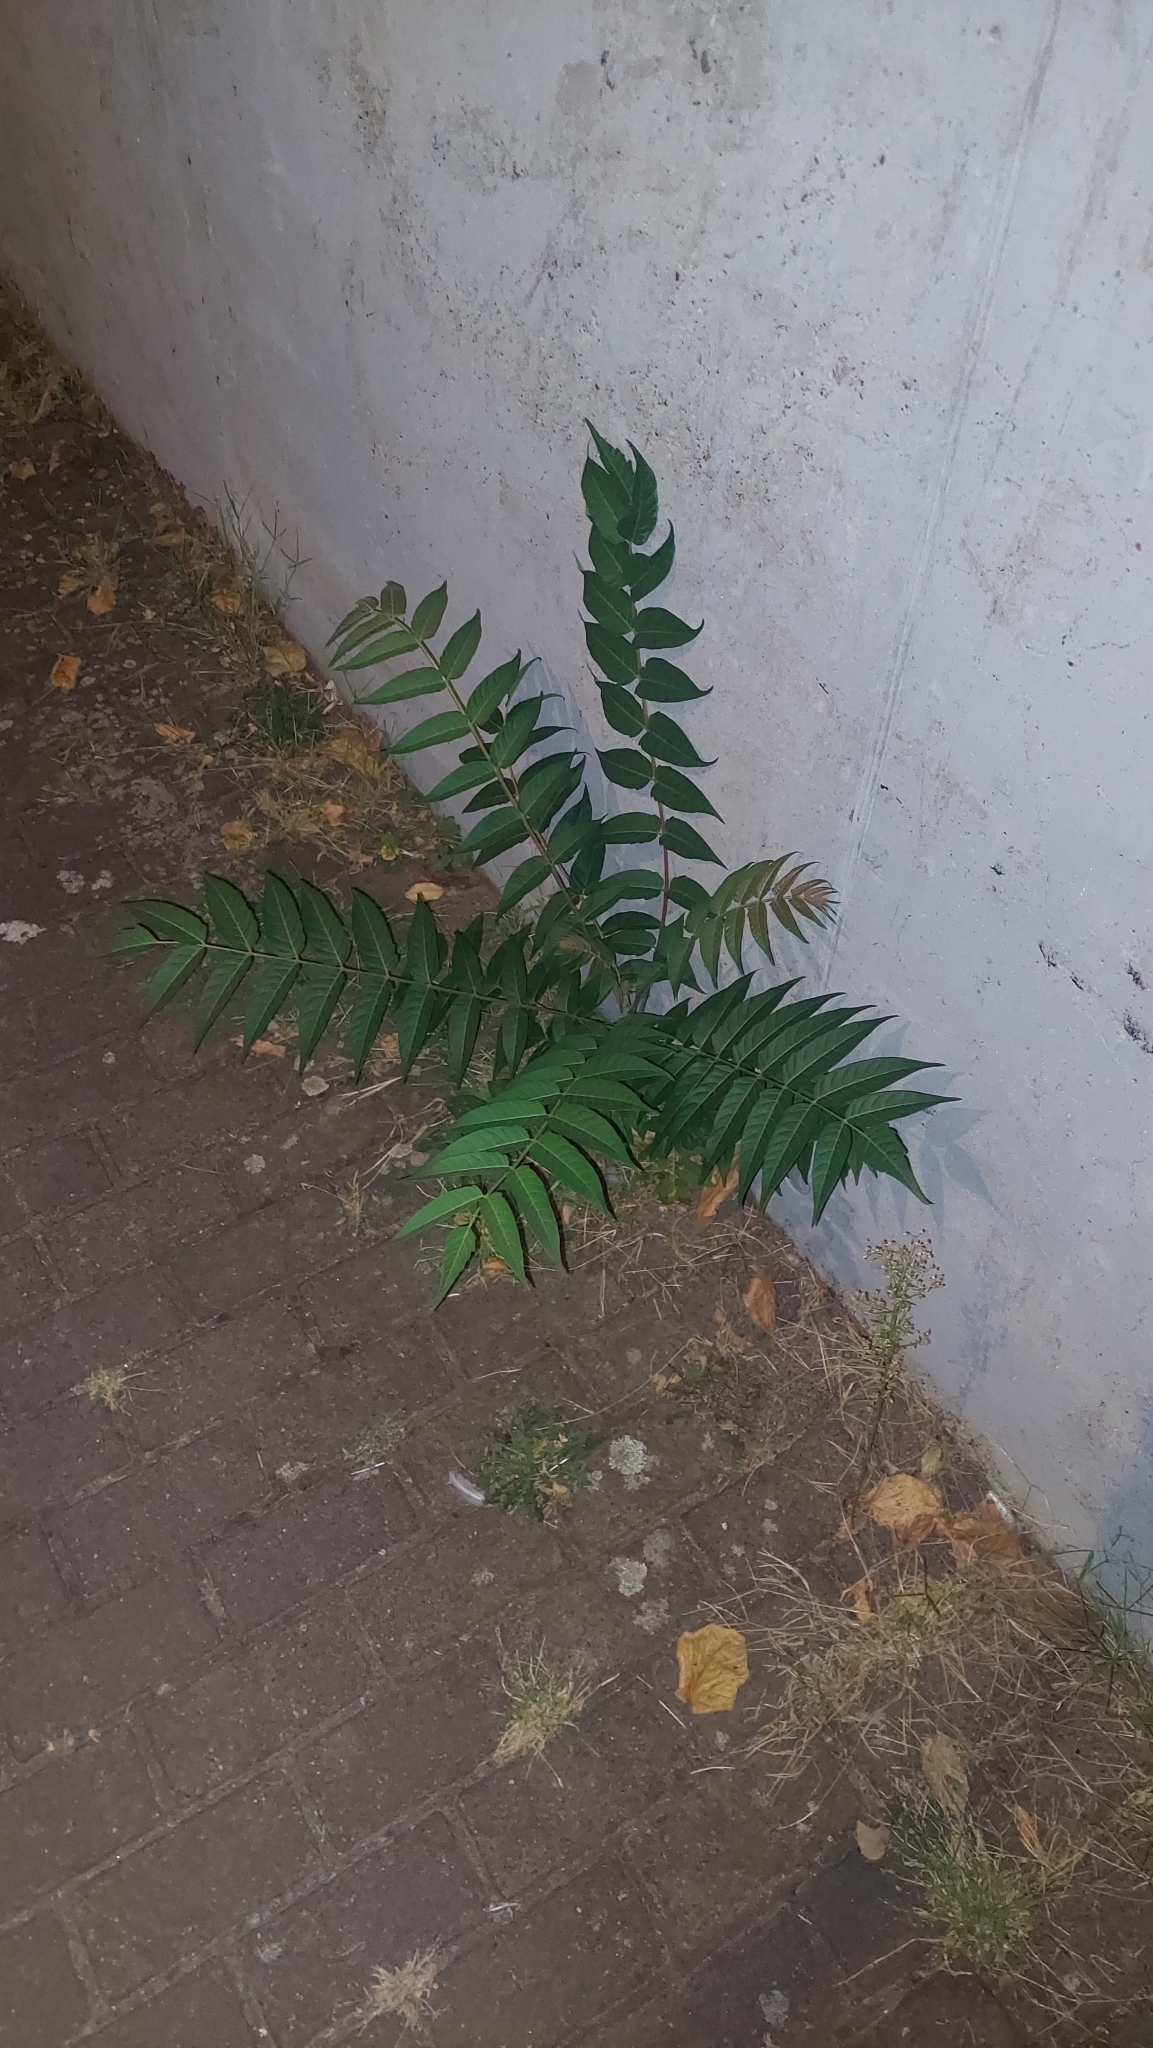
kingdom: Plantae
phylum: Tracheophyta
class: Magnoliopsida
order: Sapindales
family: Simaroubaceae
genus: Ailanthus
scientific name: Ailanthus altissima
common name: Tree-of-heaven
